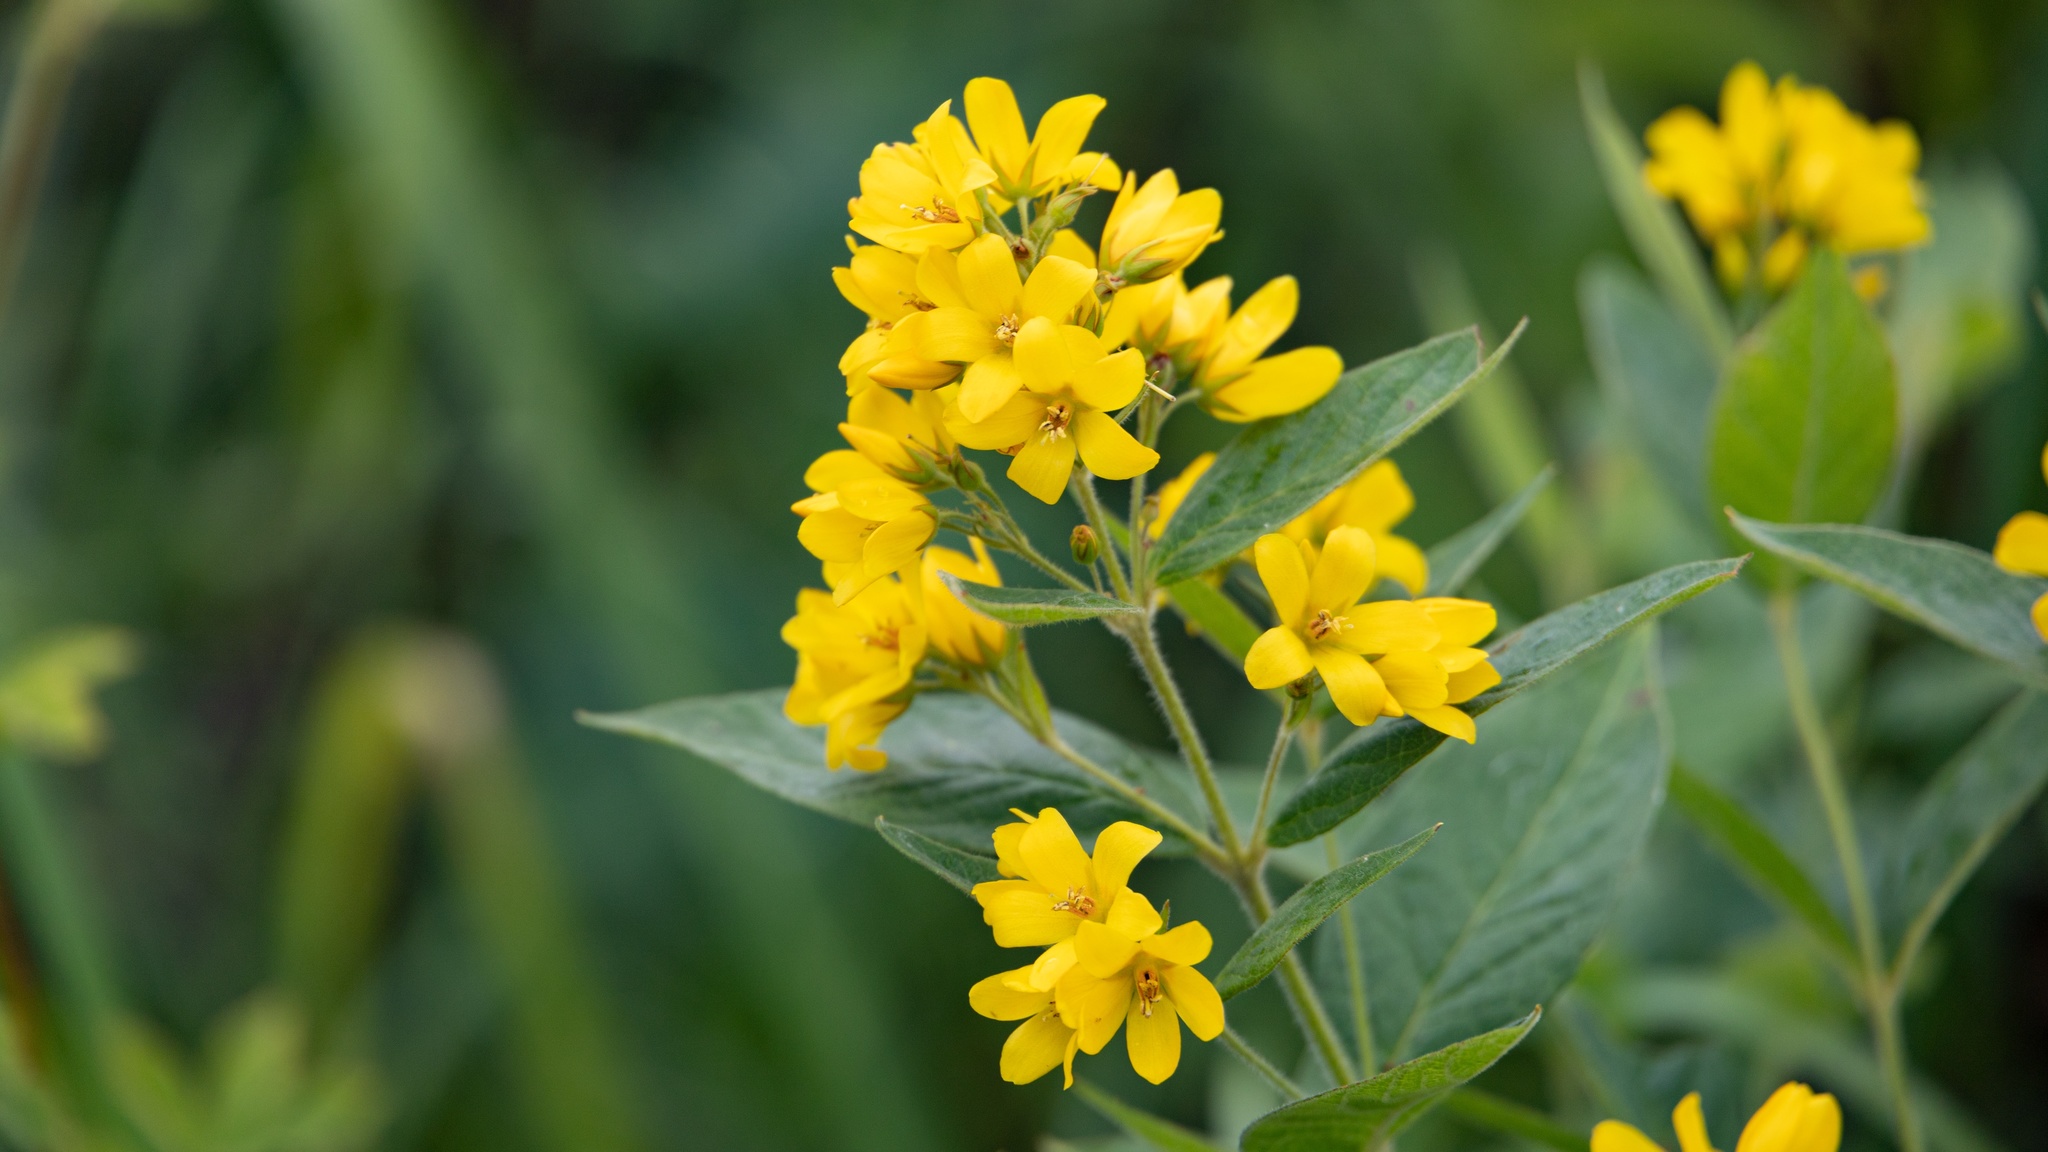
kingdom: Plantae
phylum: Tracheophyta
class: Magnoliopsida
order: Ericales
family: Primulaceae
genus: Lysimachia
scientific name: Lysimachia vulgaris
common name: Yellow loosestrife
